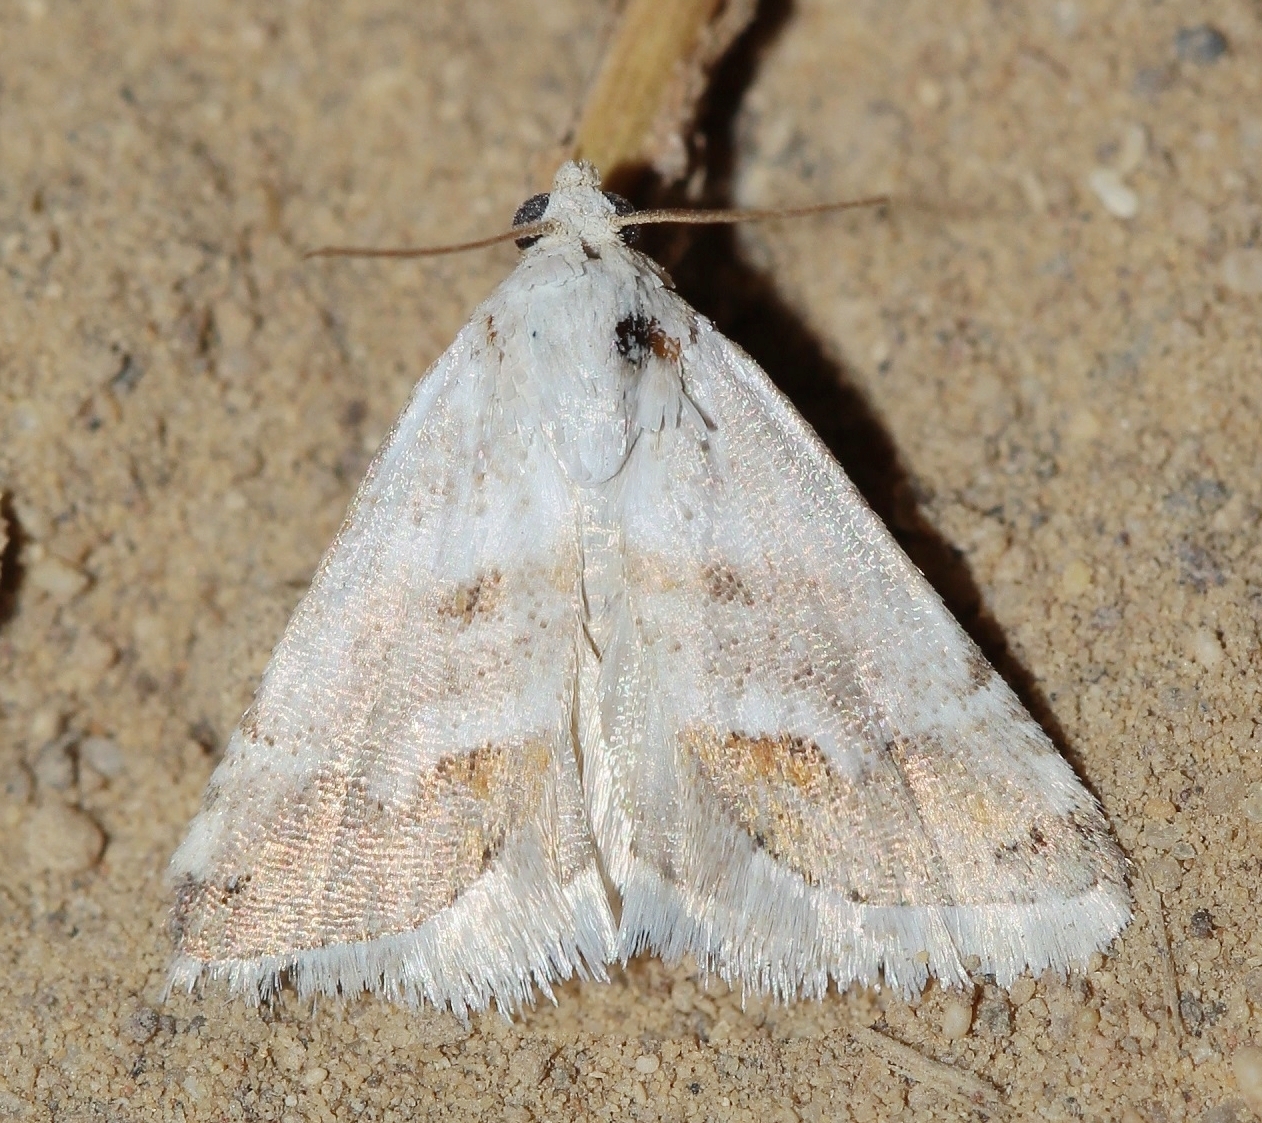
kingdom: Animalia
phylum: Arthropoda
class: Insecta
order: Lepidoptera
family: Noctuidae
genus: Eublemma
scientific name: Eublemma minutata
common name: Scarce marbled
